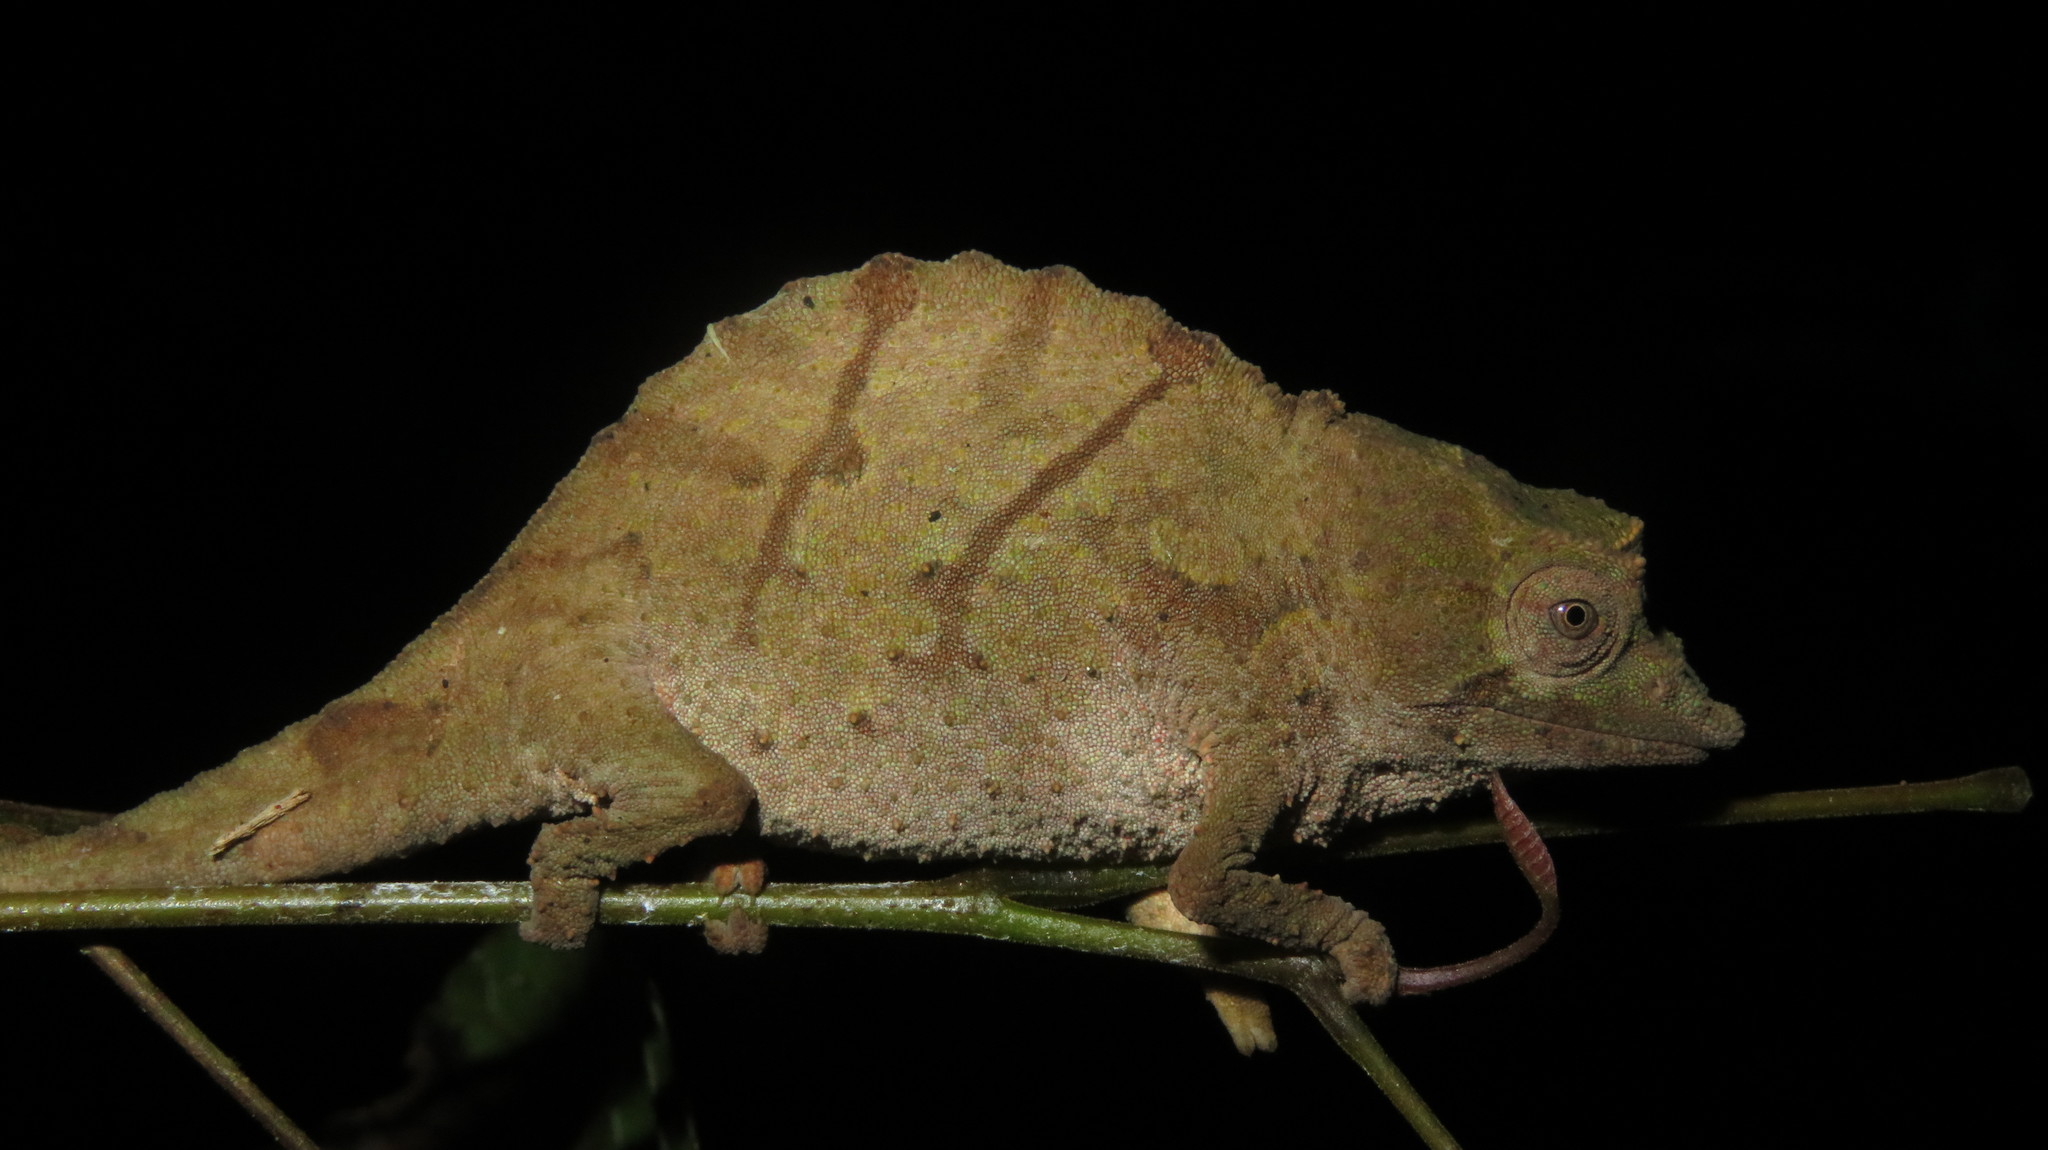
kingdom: Animalia
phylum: Chordata
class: Squamata
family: Chamaeleonidae
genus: Rhampholeon
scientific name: Rhampholeon temporalis
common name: Usambara stumptail chameleon
